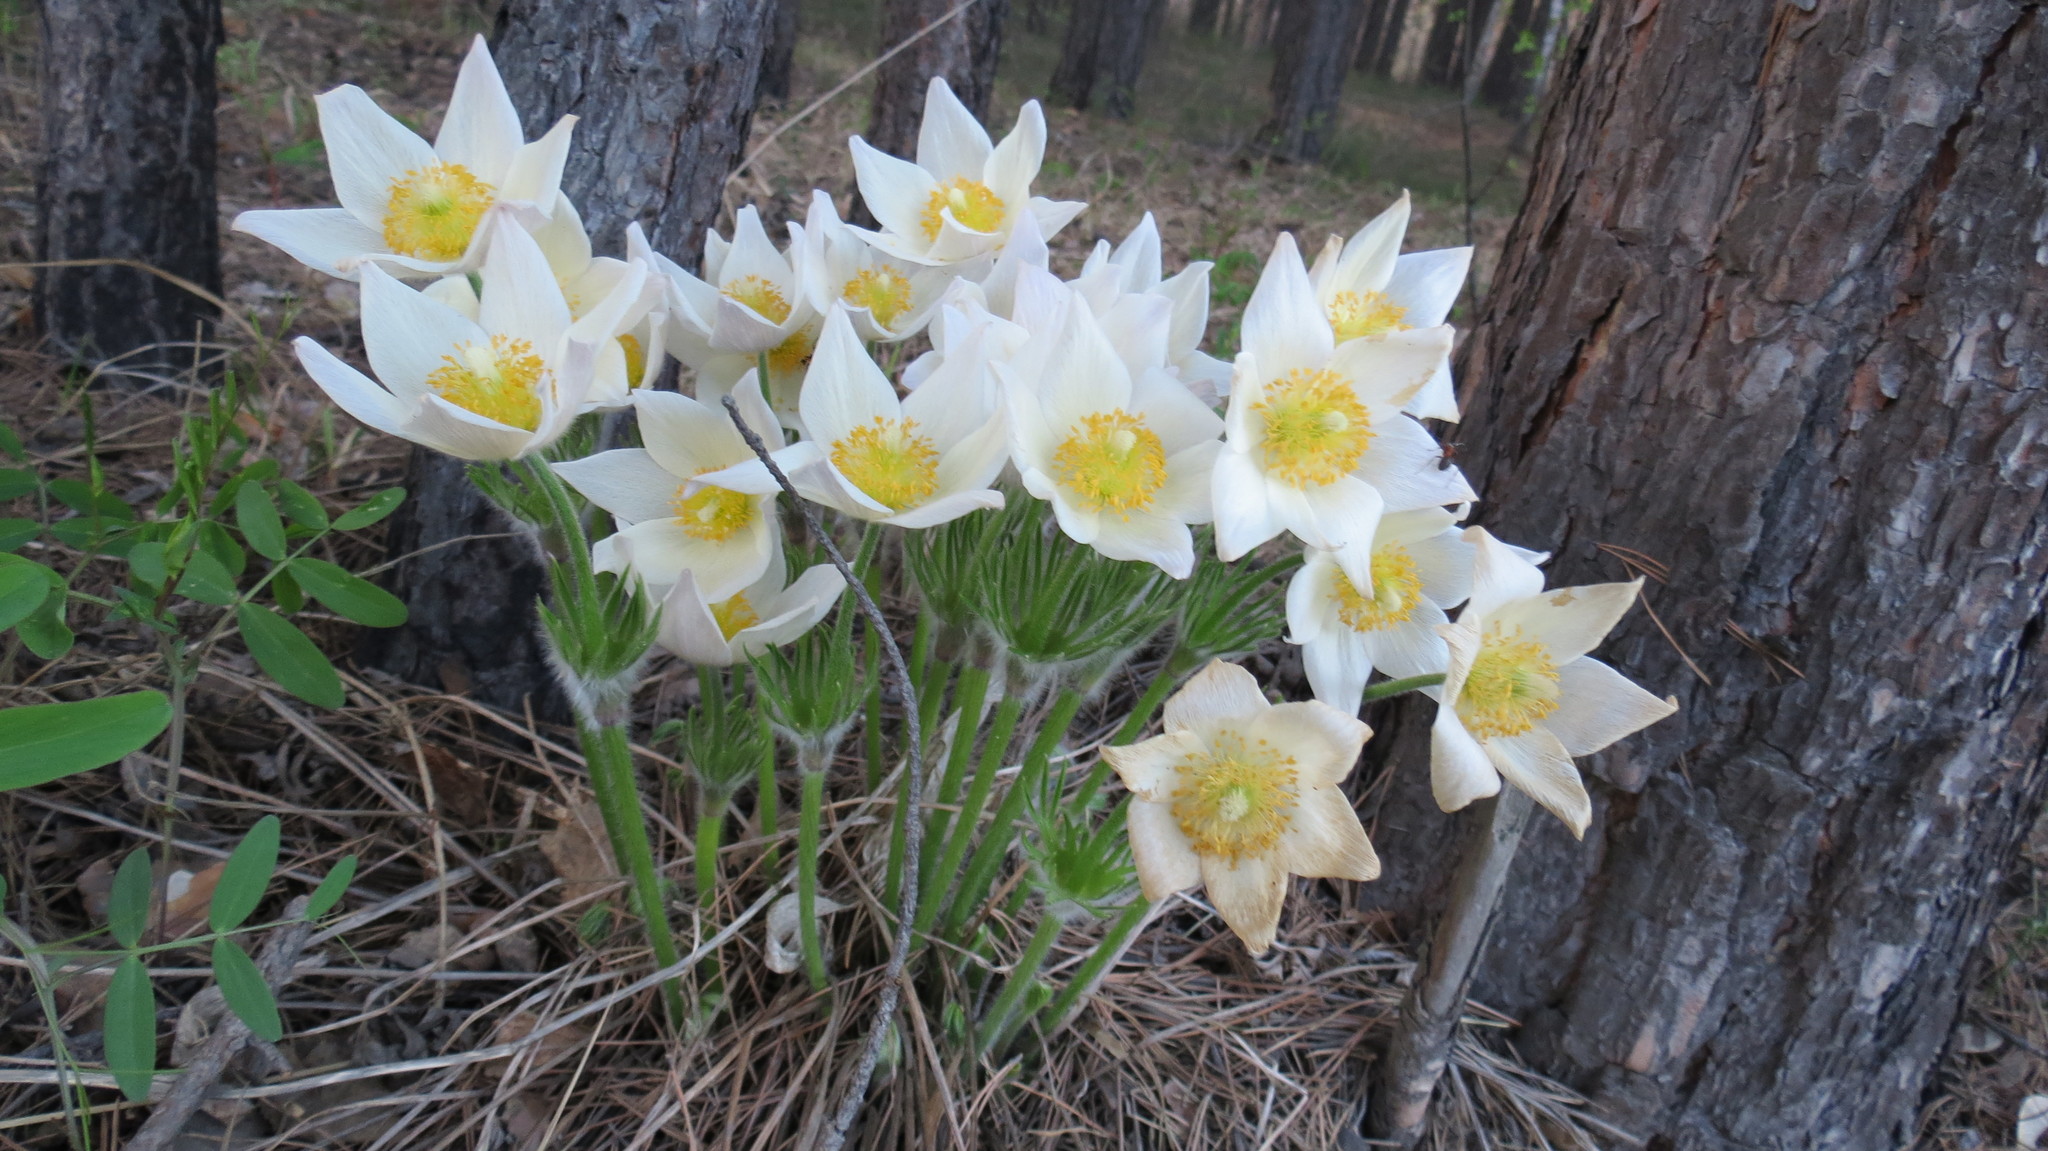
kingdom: Plantae
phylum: Tracheophyta
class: Magnoliopsida
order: Ranunculales
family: Ranunculaceae
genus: Pulsatilla
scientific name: Pulsatilla patens
